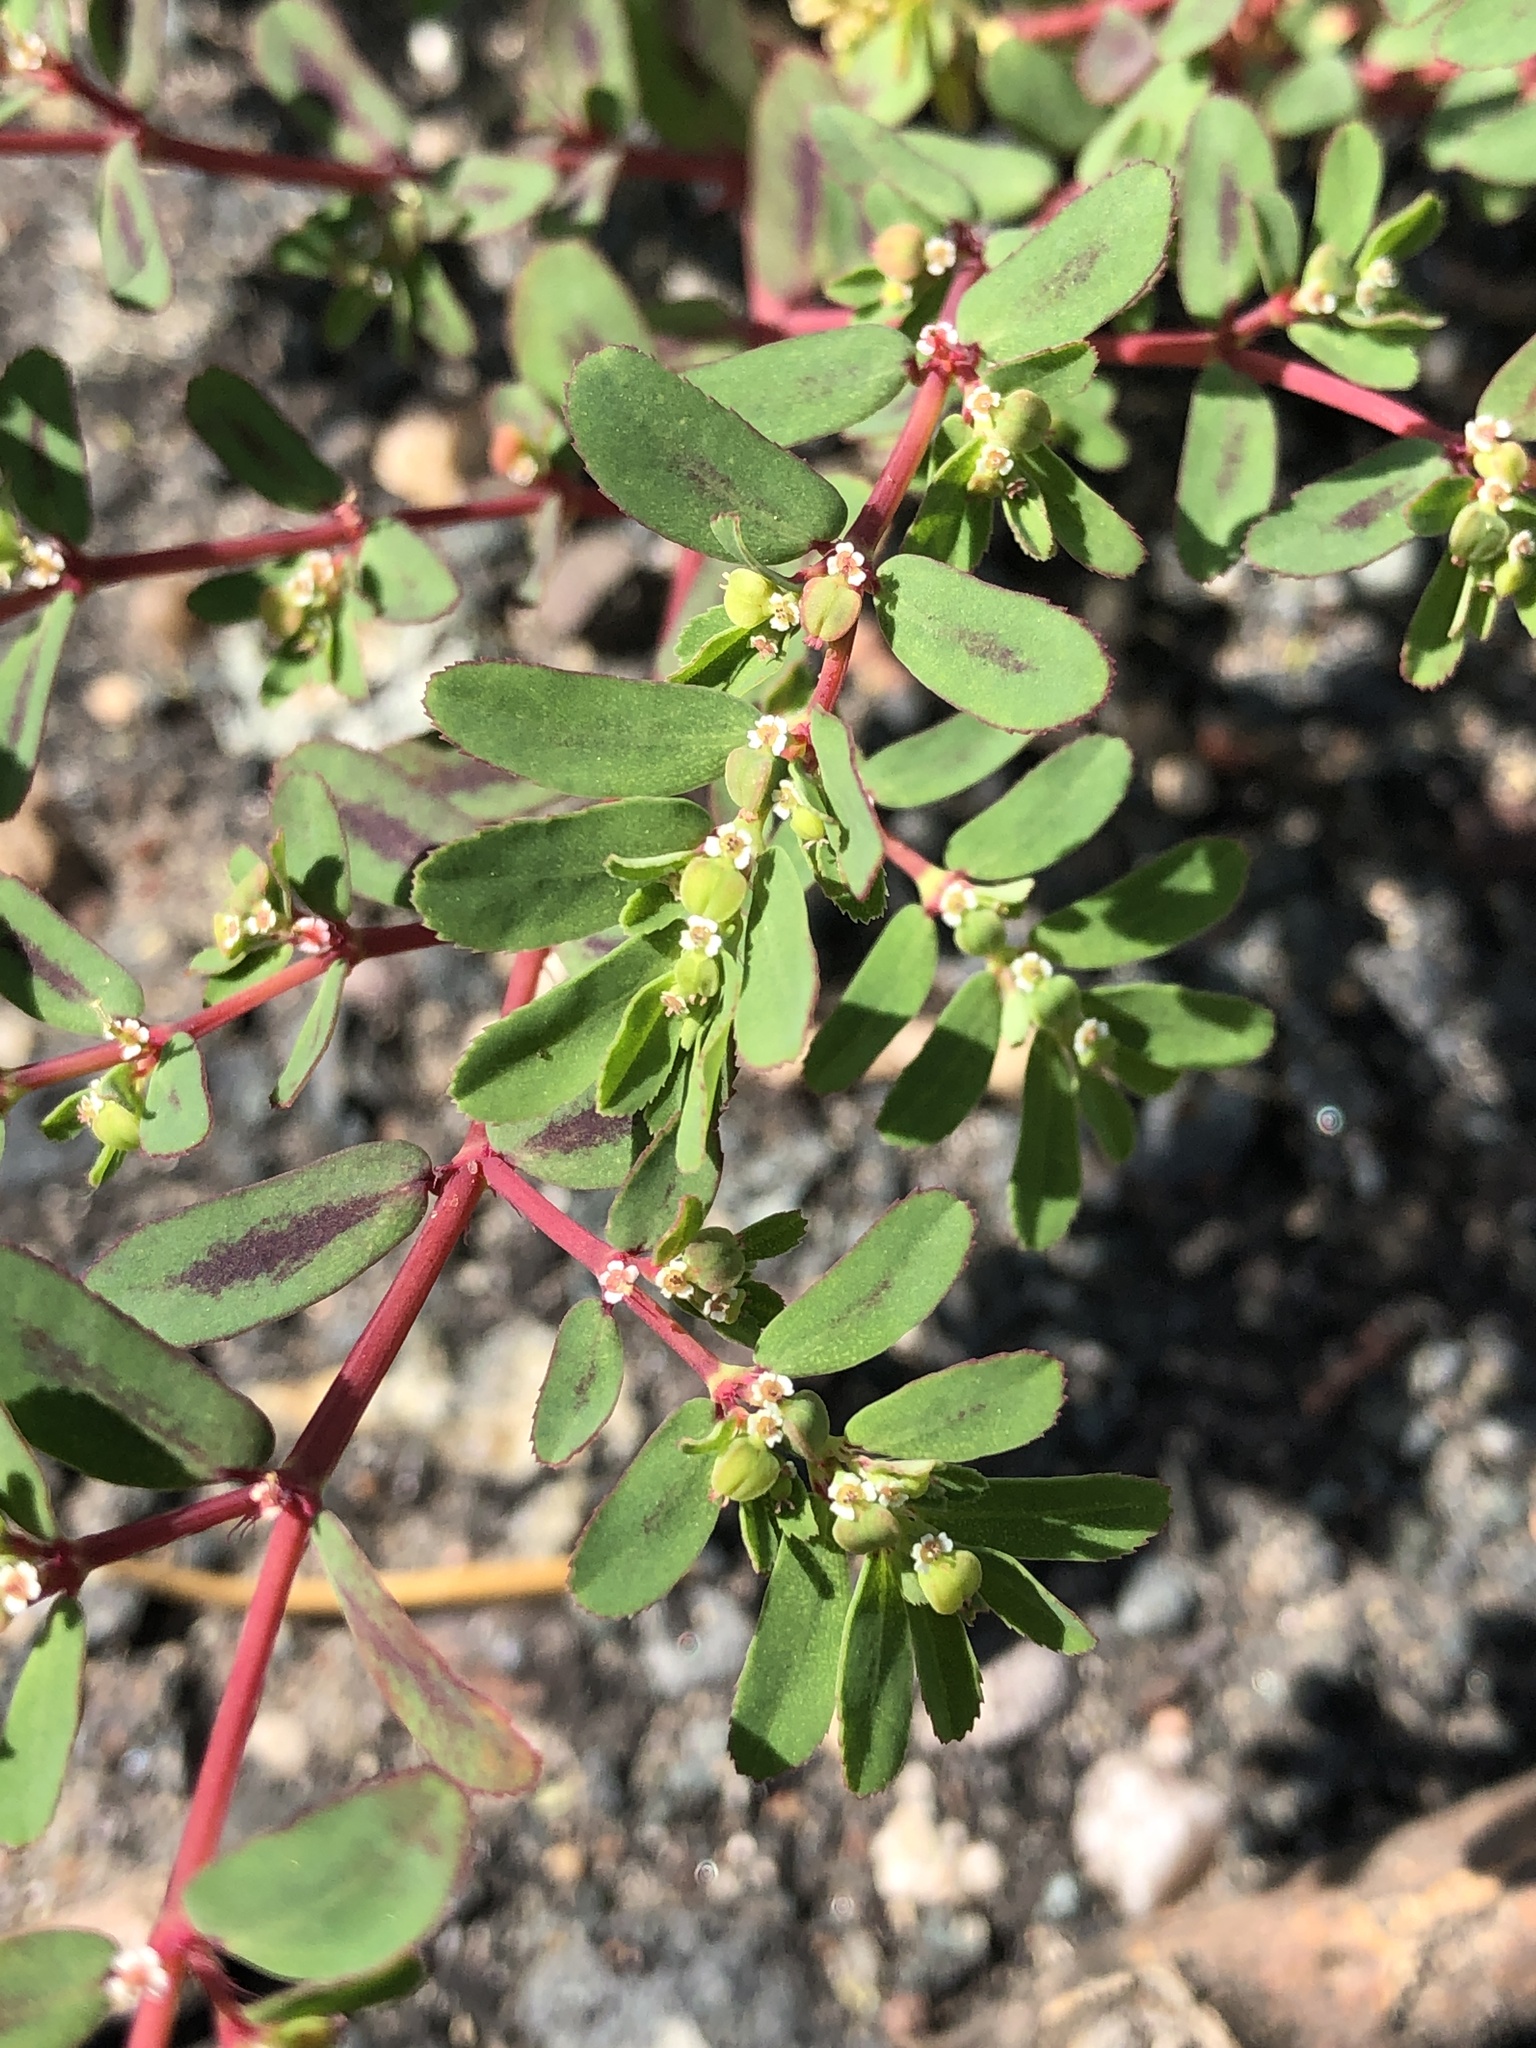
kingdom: Plantae
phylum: Tracheophyta
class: Magnoliopsida
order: Malpighiales
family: Euphorbiaceae
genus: Euphorbia
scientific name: Euphorbia serpillifolia
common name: Thyme-leaf spurge
